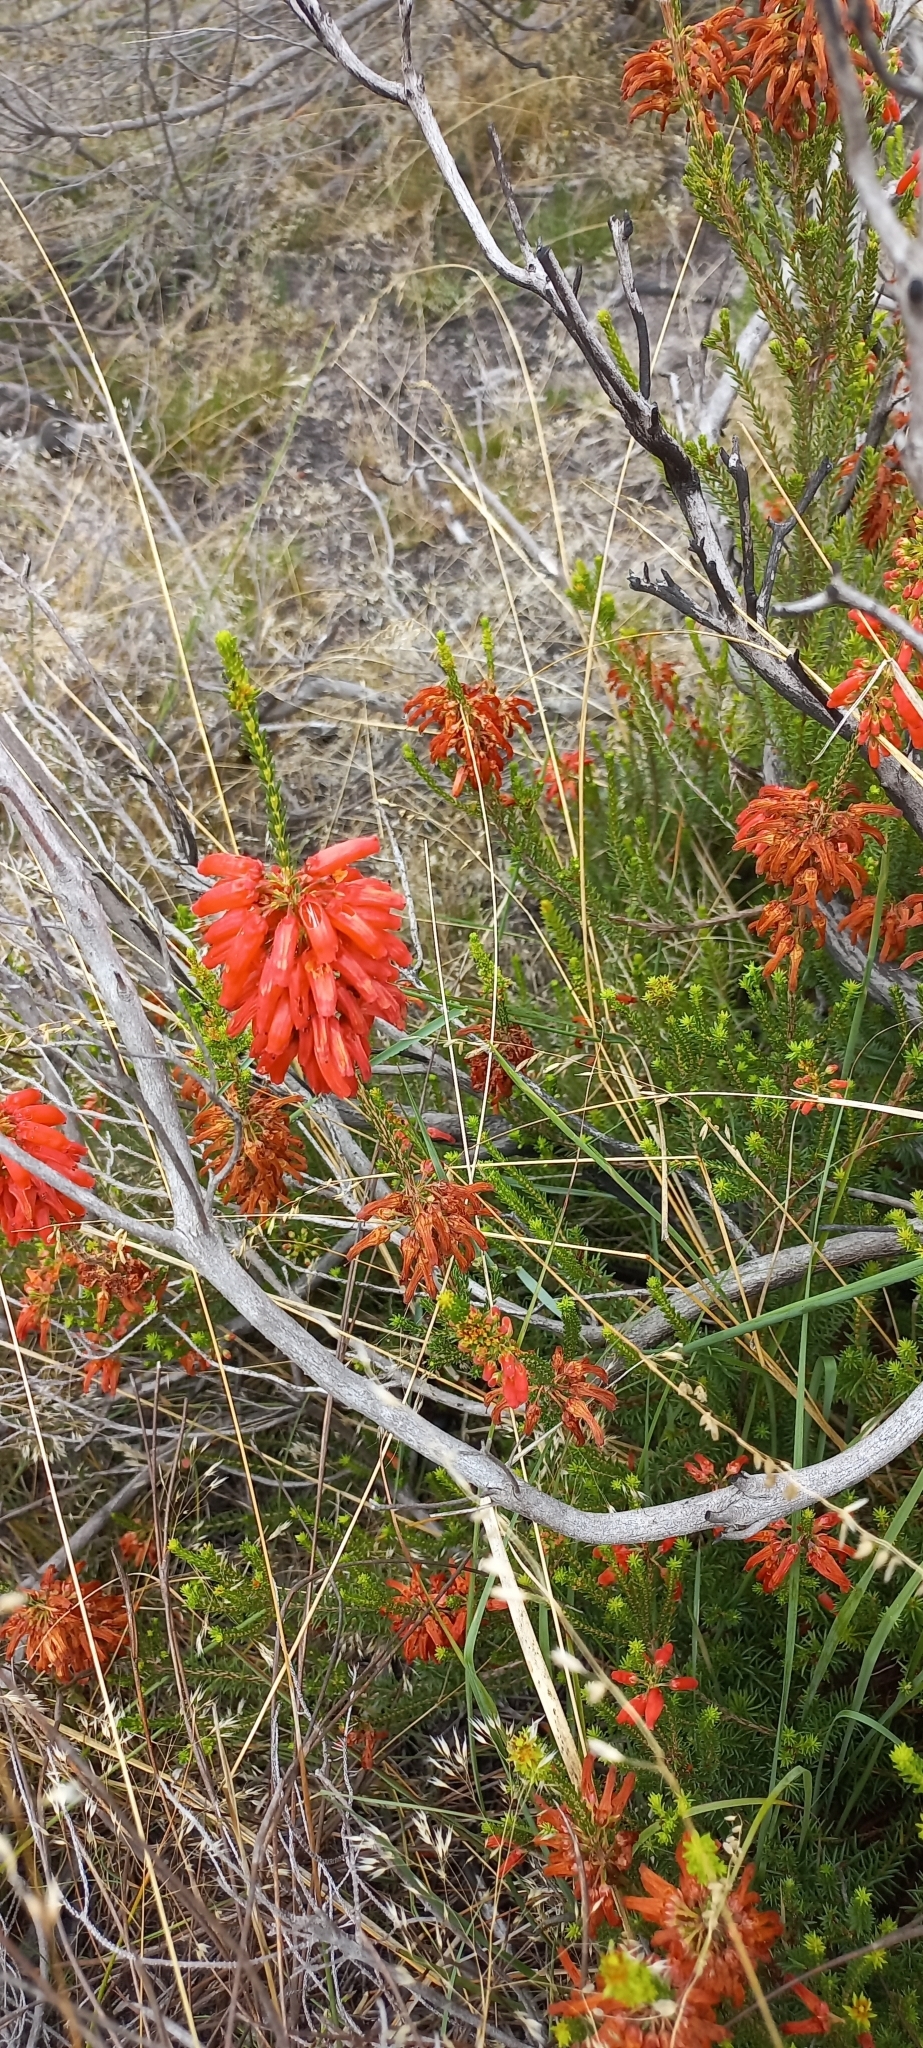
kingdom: Plantae
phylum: Tracheophyta
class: Magnoliopsida
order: Ericales
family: Ericaceae
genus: Erica
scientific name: Erica mammosa
